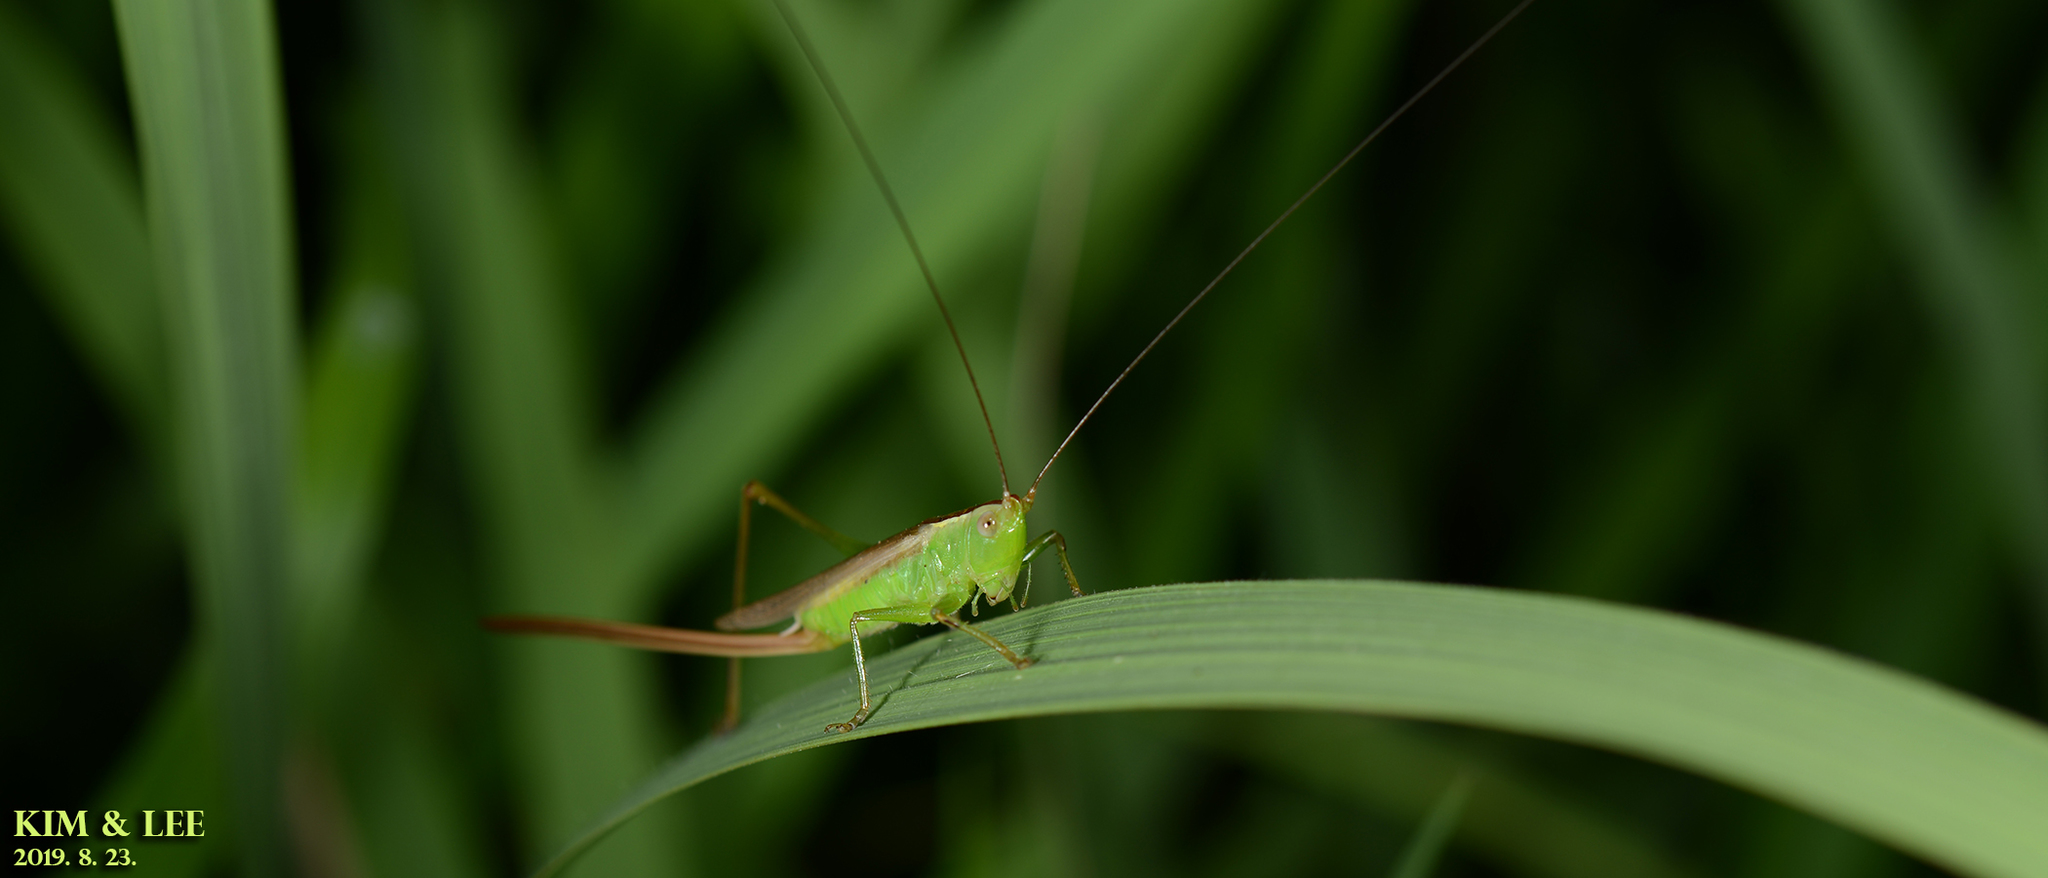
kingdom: Animalia
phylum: Arthropoda
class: Insecta
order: Orthoptera
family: Tettigoniidae
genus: Conocephalus
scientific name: Conocephalus exemptus
